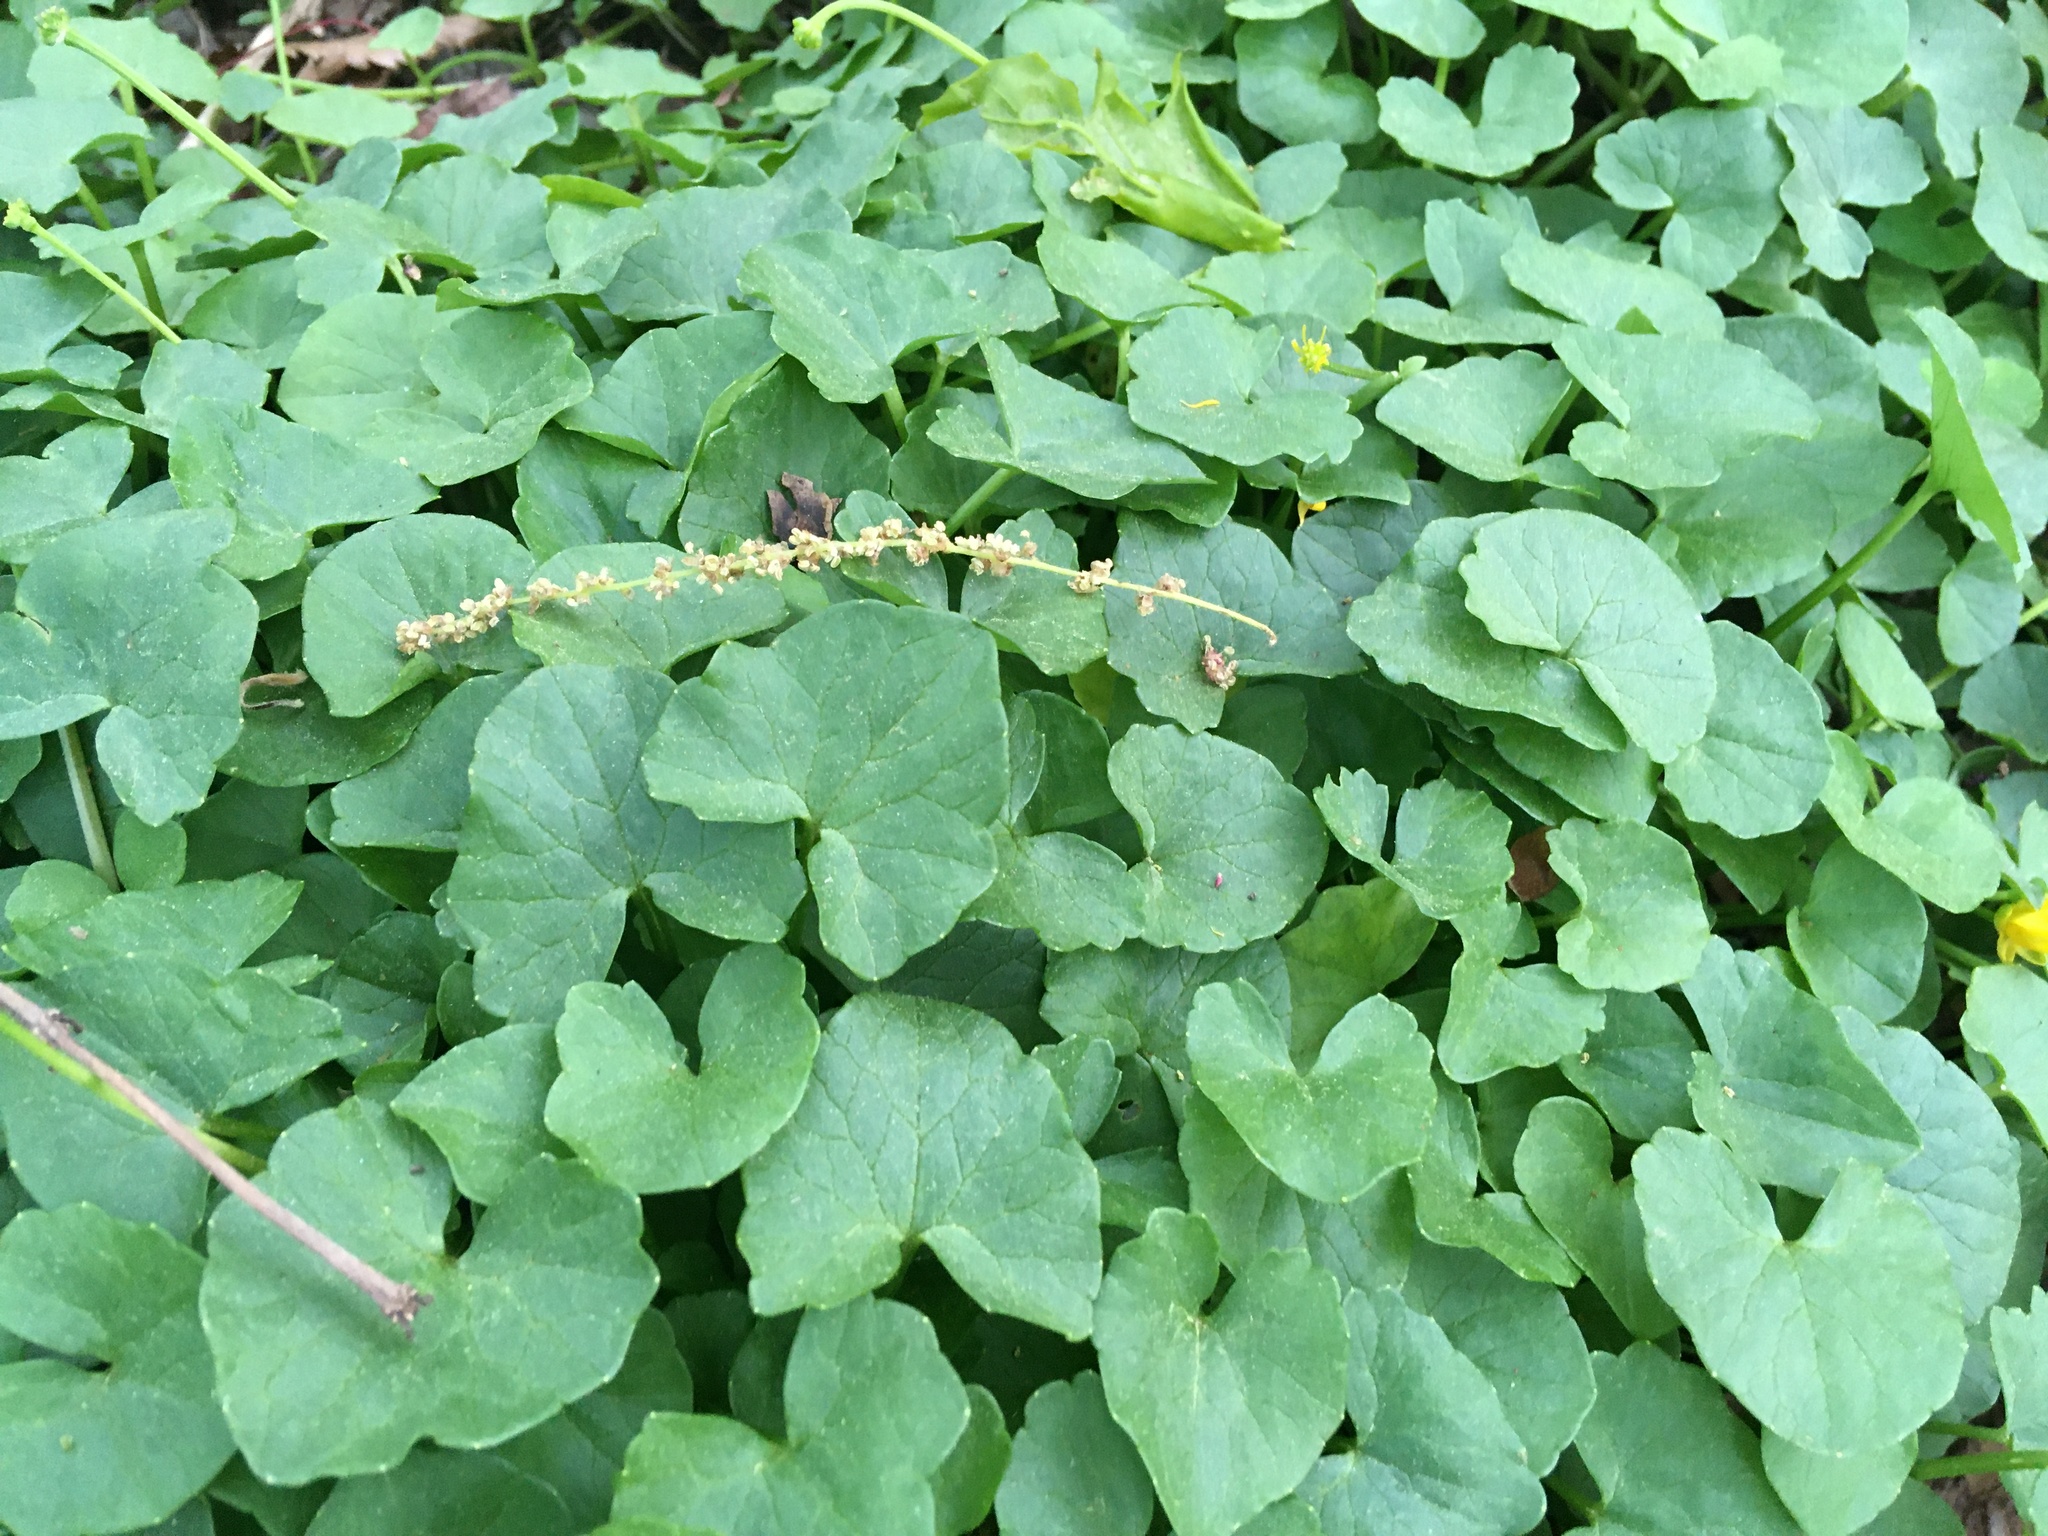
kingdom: Plantae
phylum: Tracheophyta
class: Magnoliopsida
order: Ranunculales
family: Ranunculaceae
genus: Ficaria
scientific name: Ficaria verna
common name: Lesser celandine
